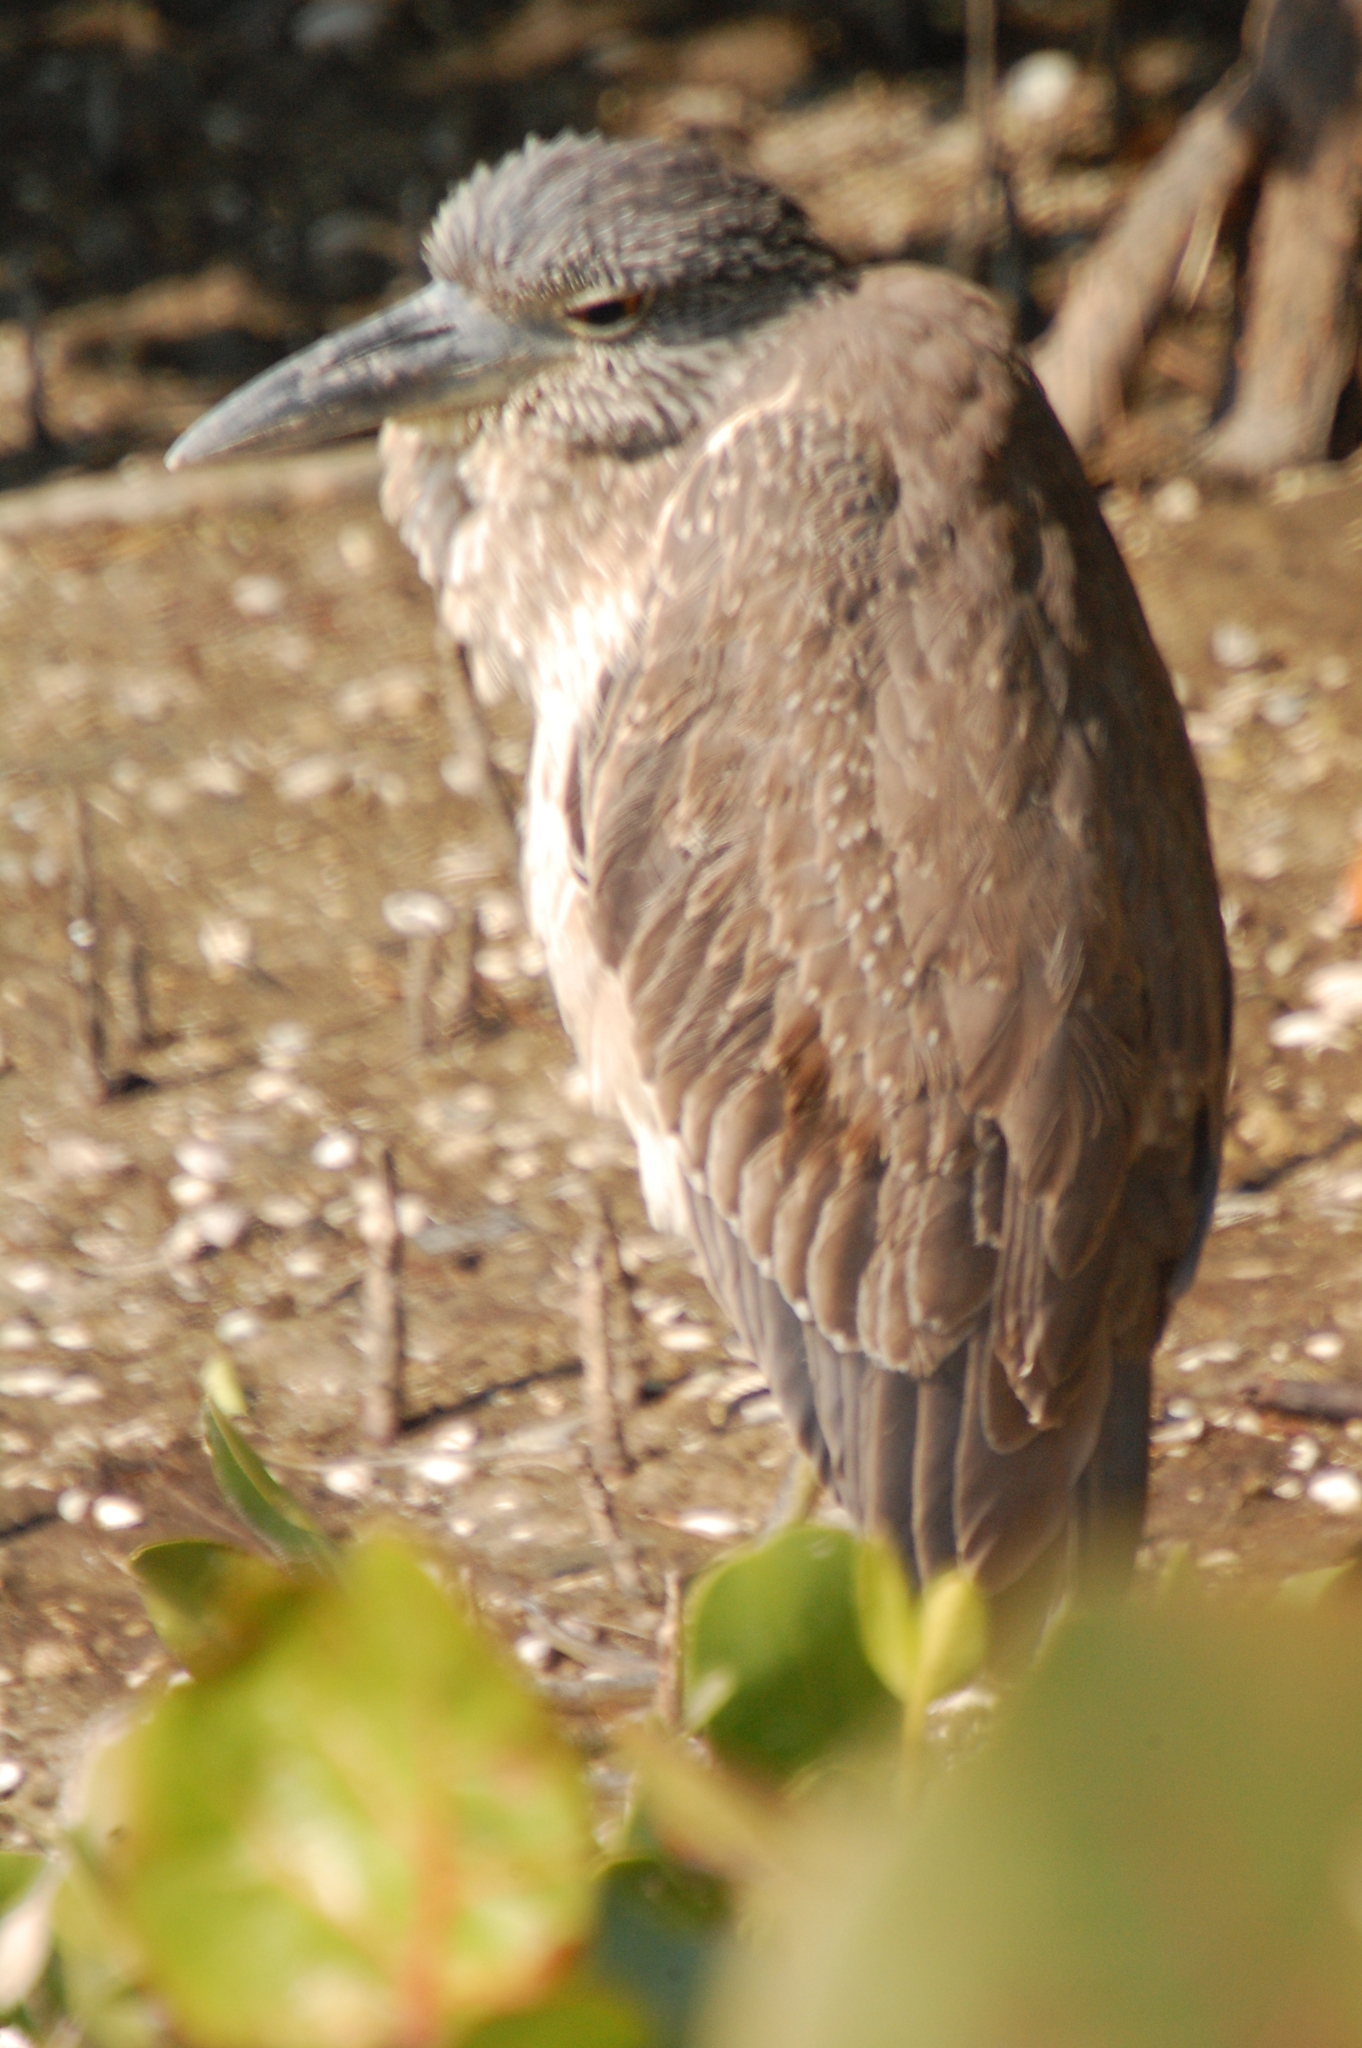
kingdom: Animalia
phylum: Chordata
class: Aves
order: Pelecaniformes
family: Ardeidae
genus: Nyctanassa
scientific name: Nyctanassa violacea
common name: Yellow-crowned night heron
